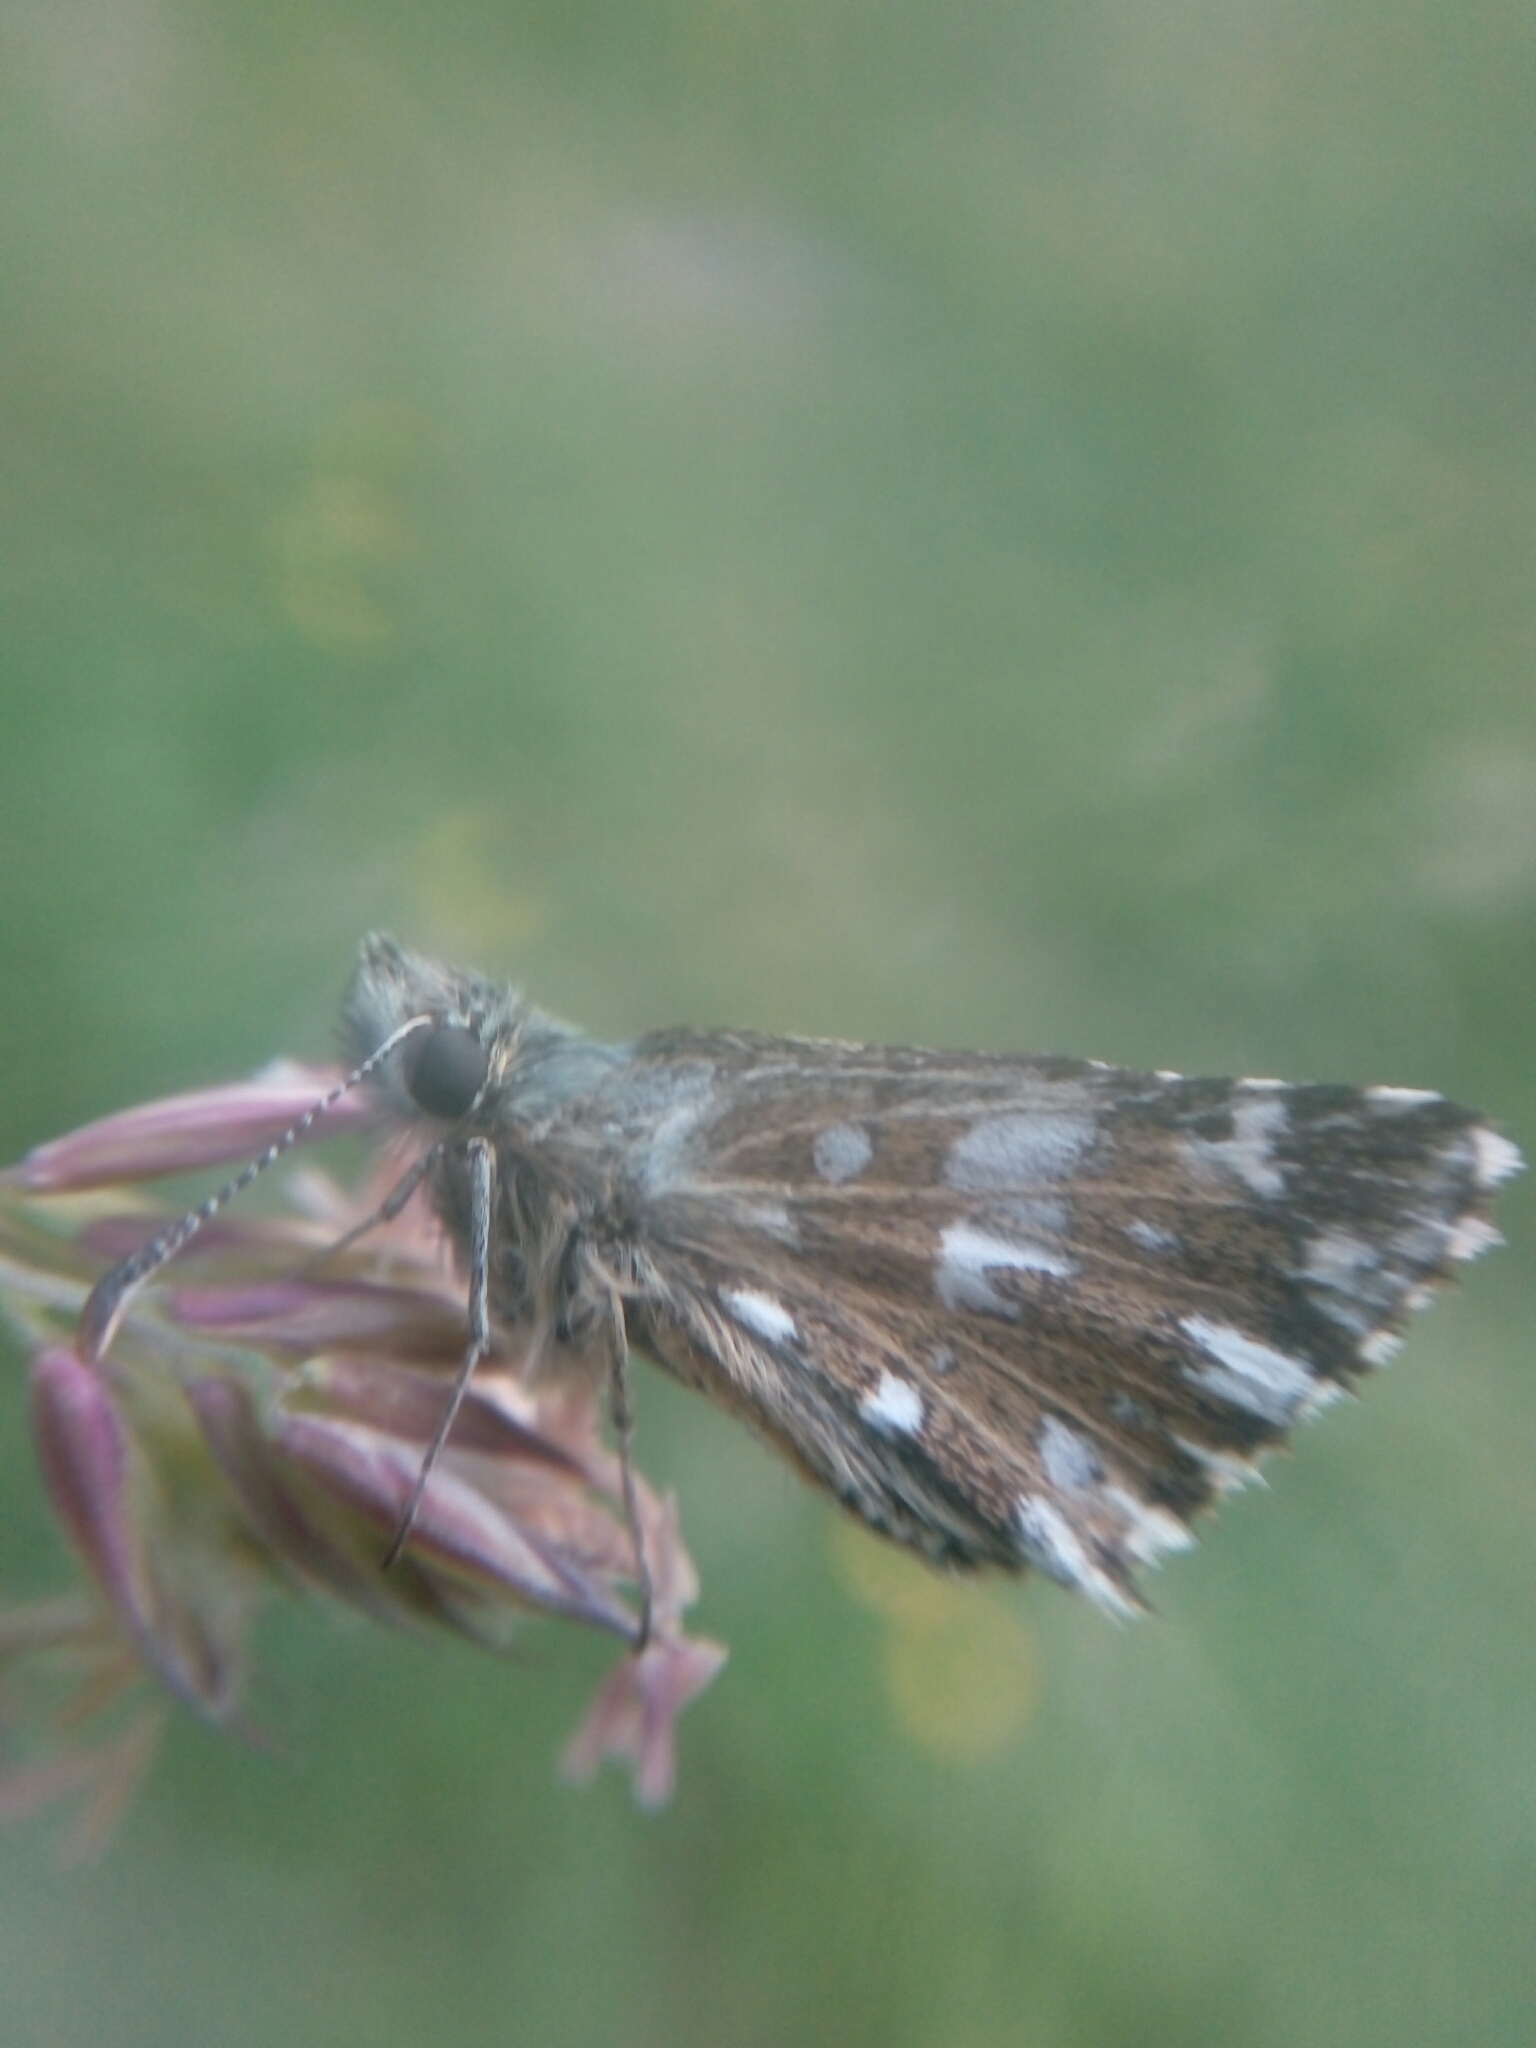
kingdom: Animalia
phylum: Arthropoda
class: Insecta
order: Lepidoptera
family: Hesperiidae
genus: Pyrgus
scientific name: Pyrgus malvoides
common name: Southern grizzled skipper
